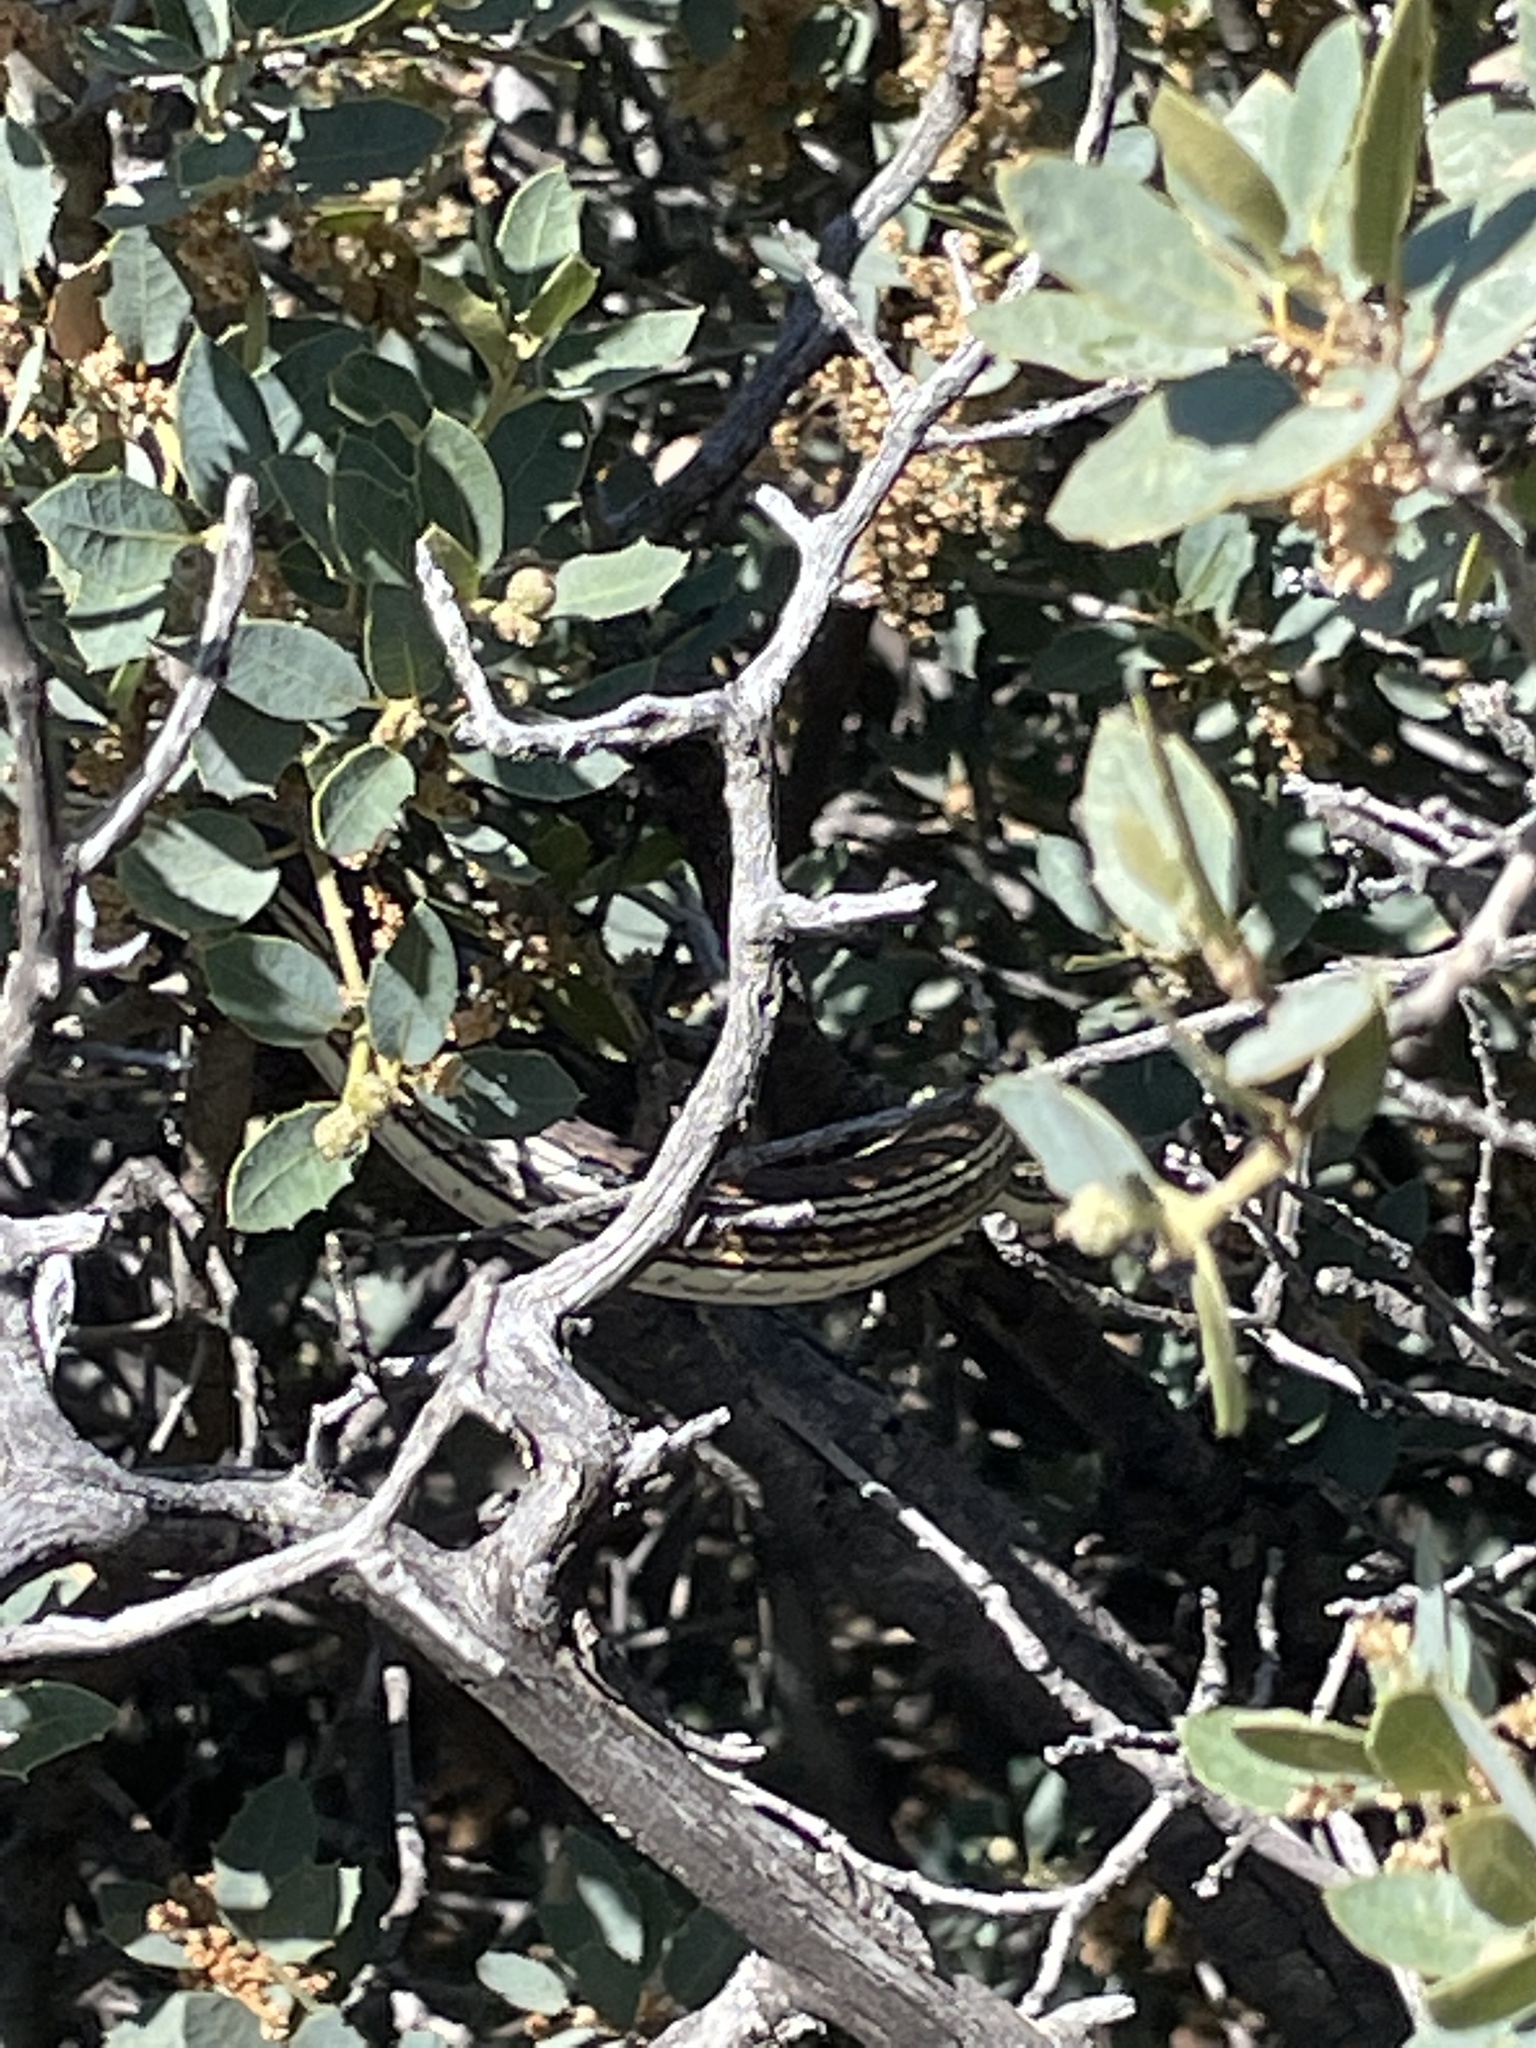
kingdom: Animalia
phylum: Chordata
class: Squamata
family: Colubridae
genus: Masticophis
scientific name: Masticophis taeniatus
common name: Striped whipsnake
